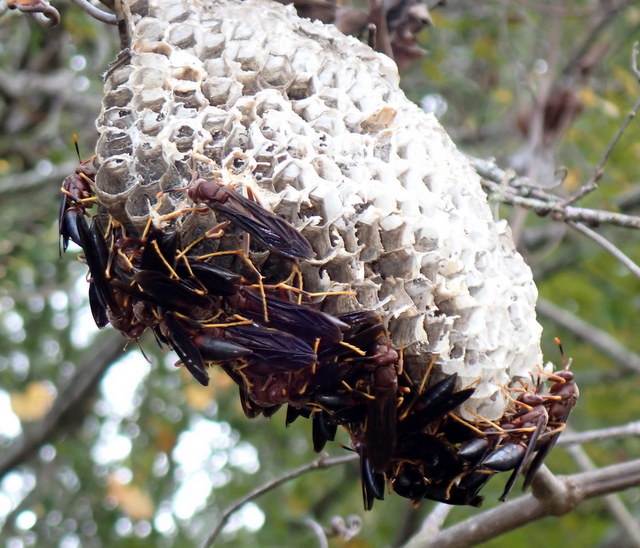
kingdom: Animalia
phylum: Arthropoda
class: Insecta
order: Hymenoptera
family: Eumenidae
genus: Polistes
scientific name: Polistes annularis
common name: Ringed paper wasp
